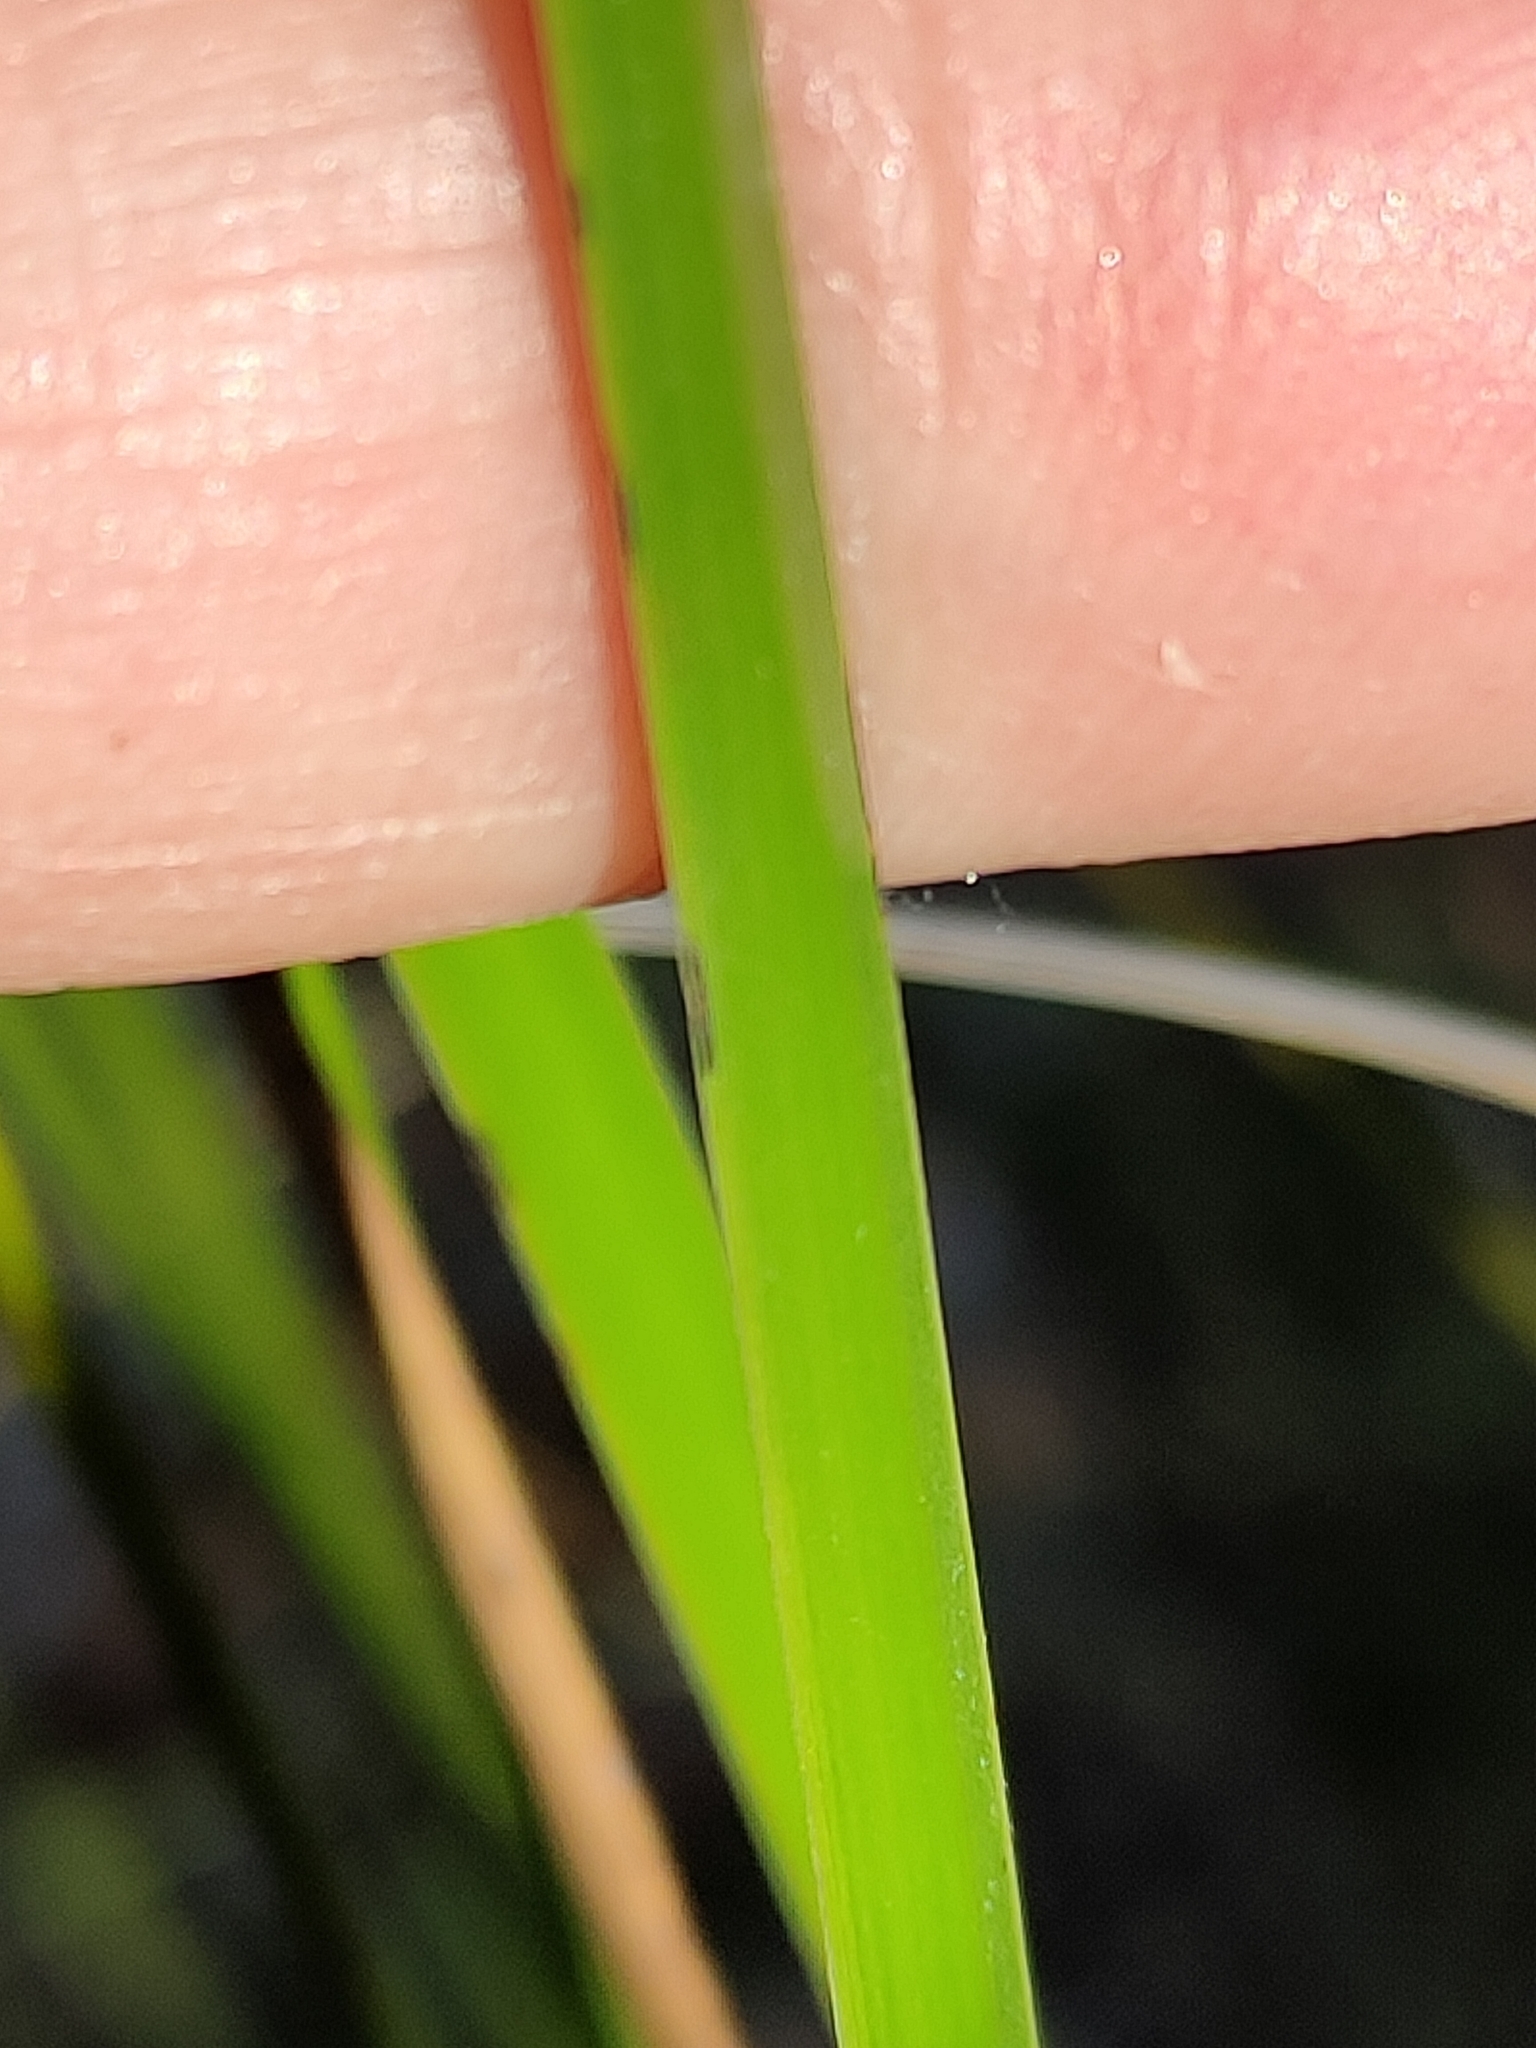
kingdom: Plantae
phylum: Tracheophyta
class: Liliopsida
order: Poales
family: Cyperaceae
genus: Lepidosperma
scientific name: Lepidosperma laterale
